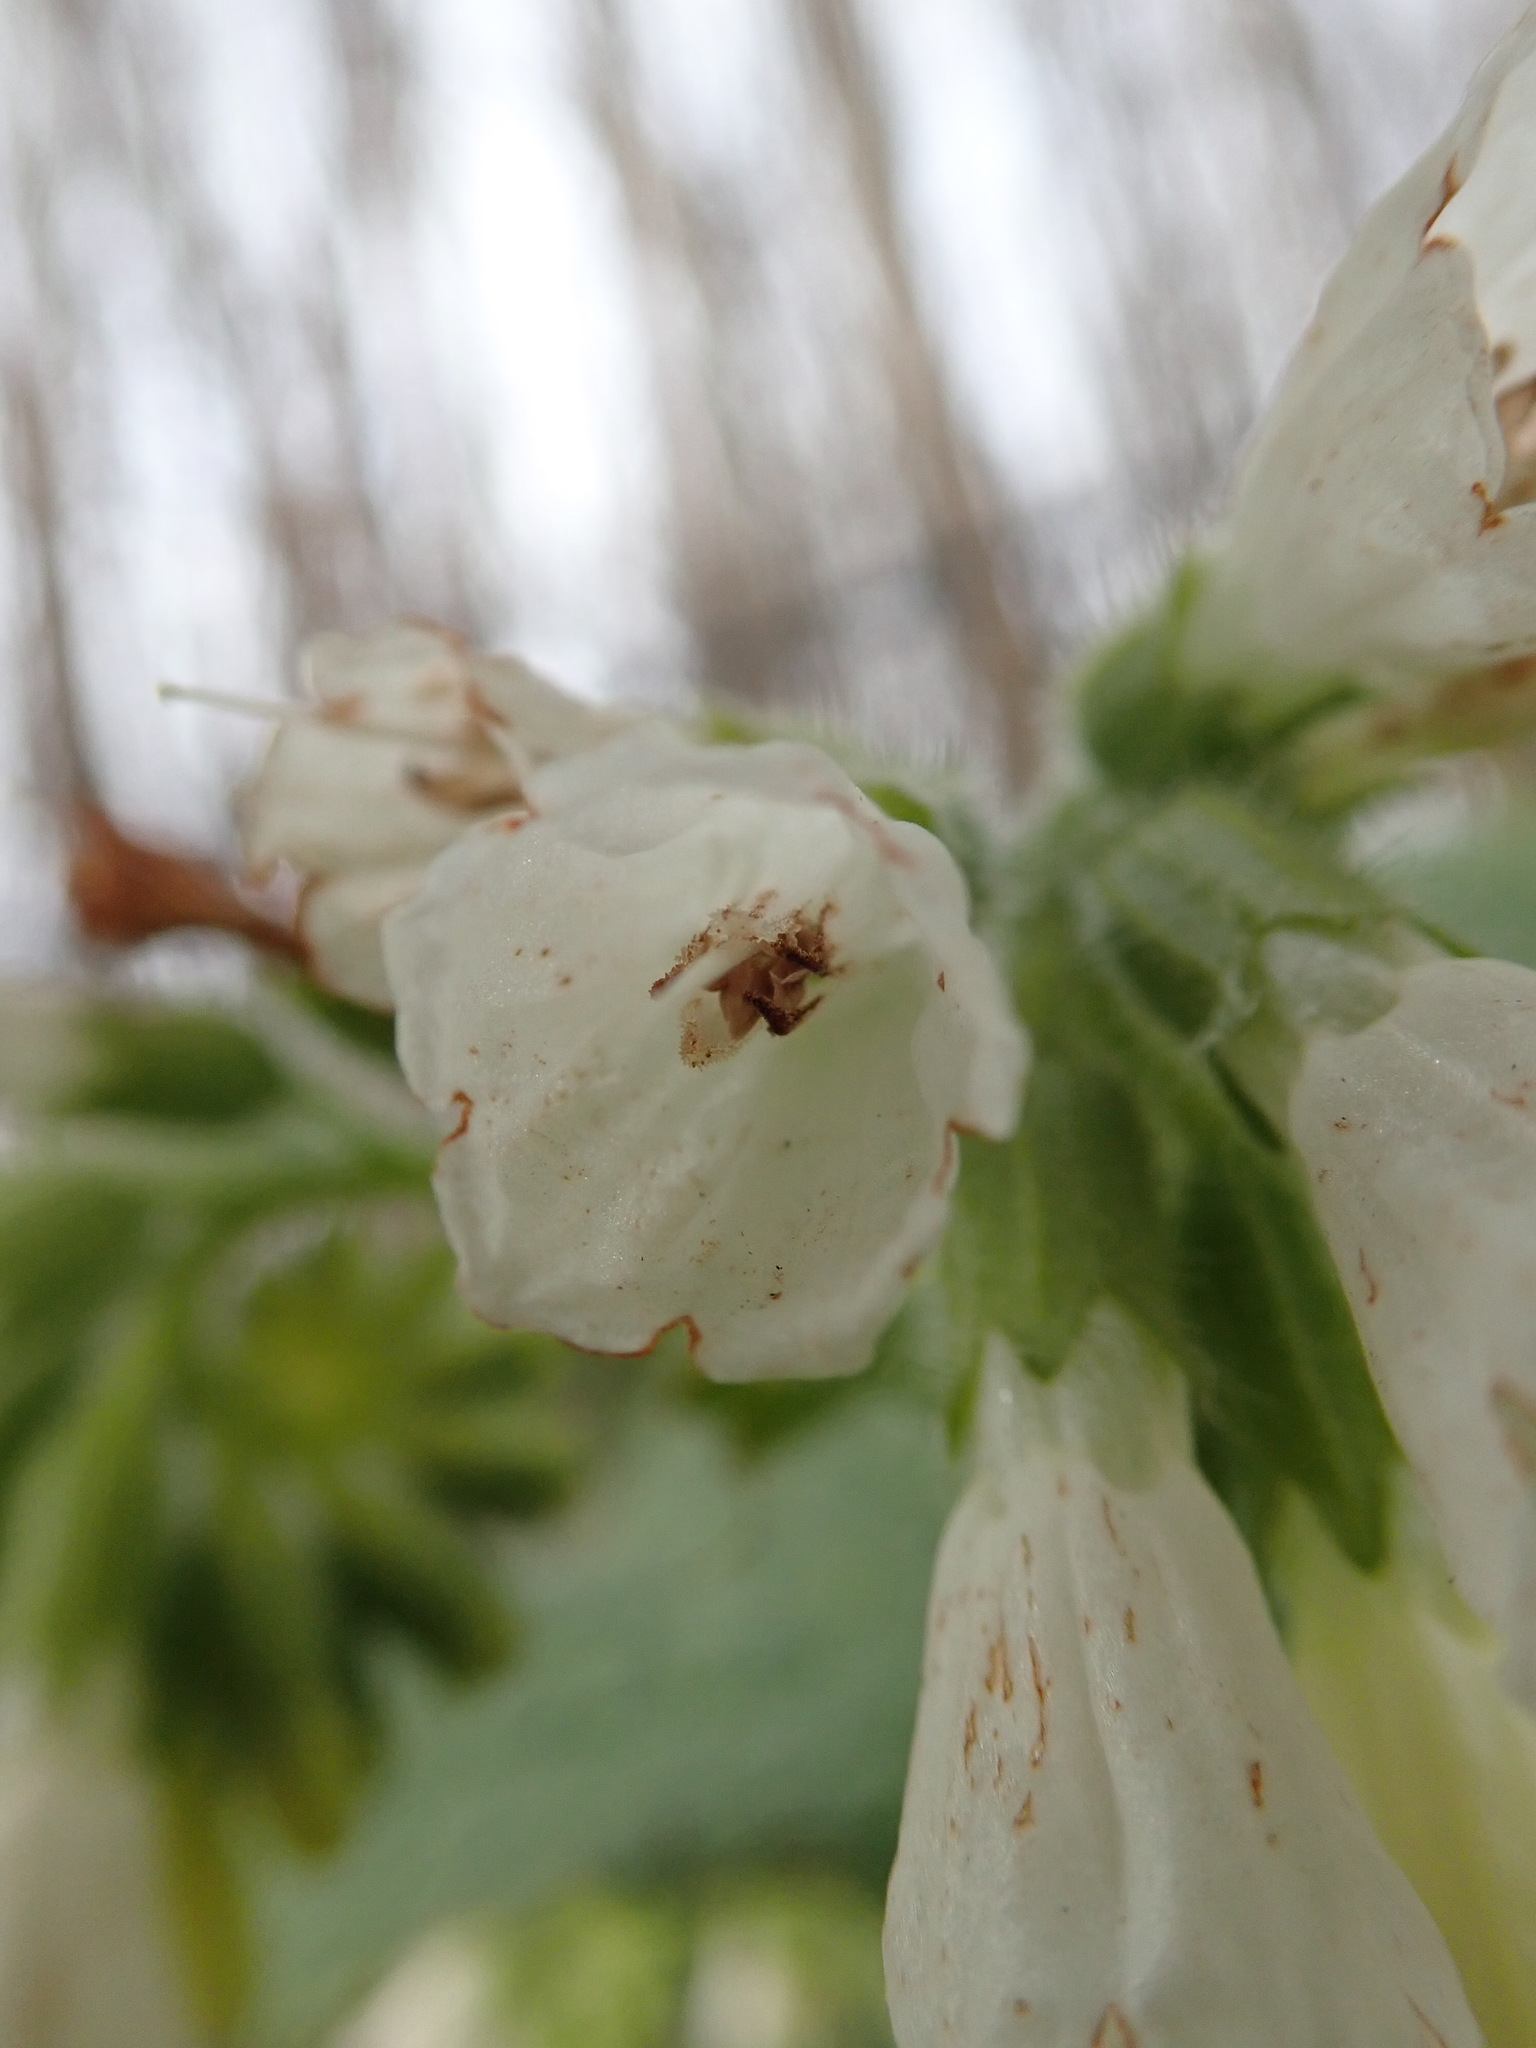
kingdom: Plantae
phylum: Tracheophyta
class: Magnoliopsida
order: Boraginales
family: Boraginaceae
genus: Symphytum
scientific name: Symphytum orientale
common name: White comfrey
